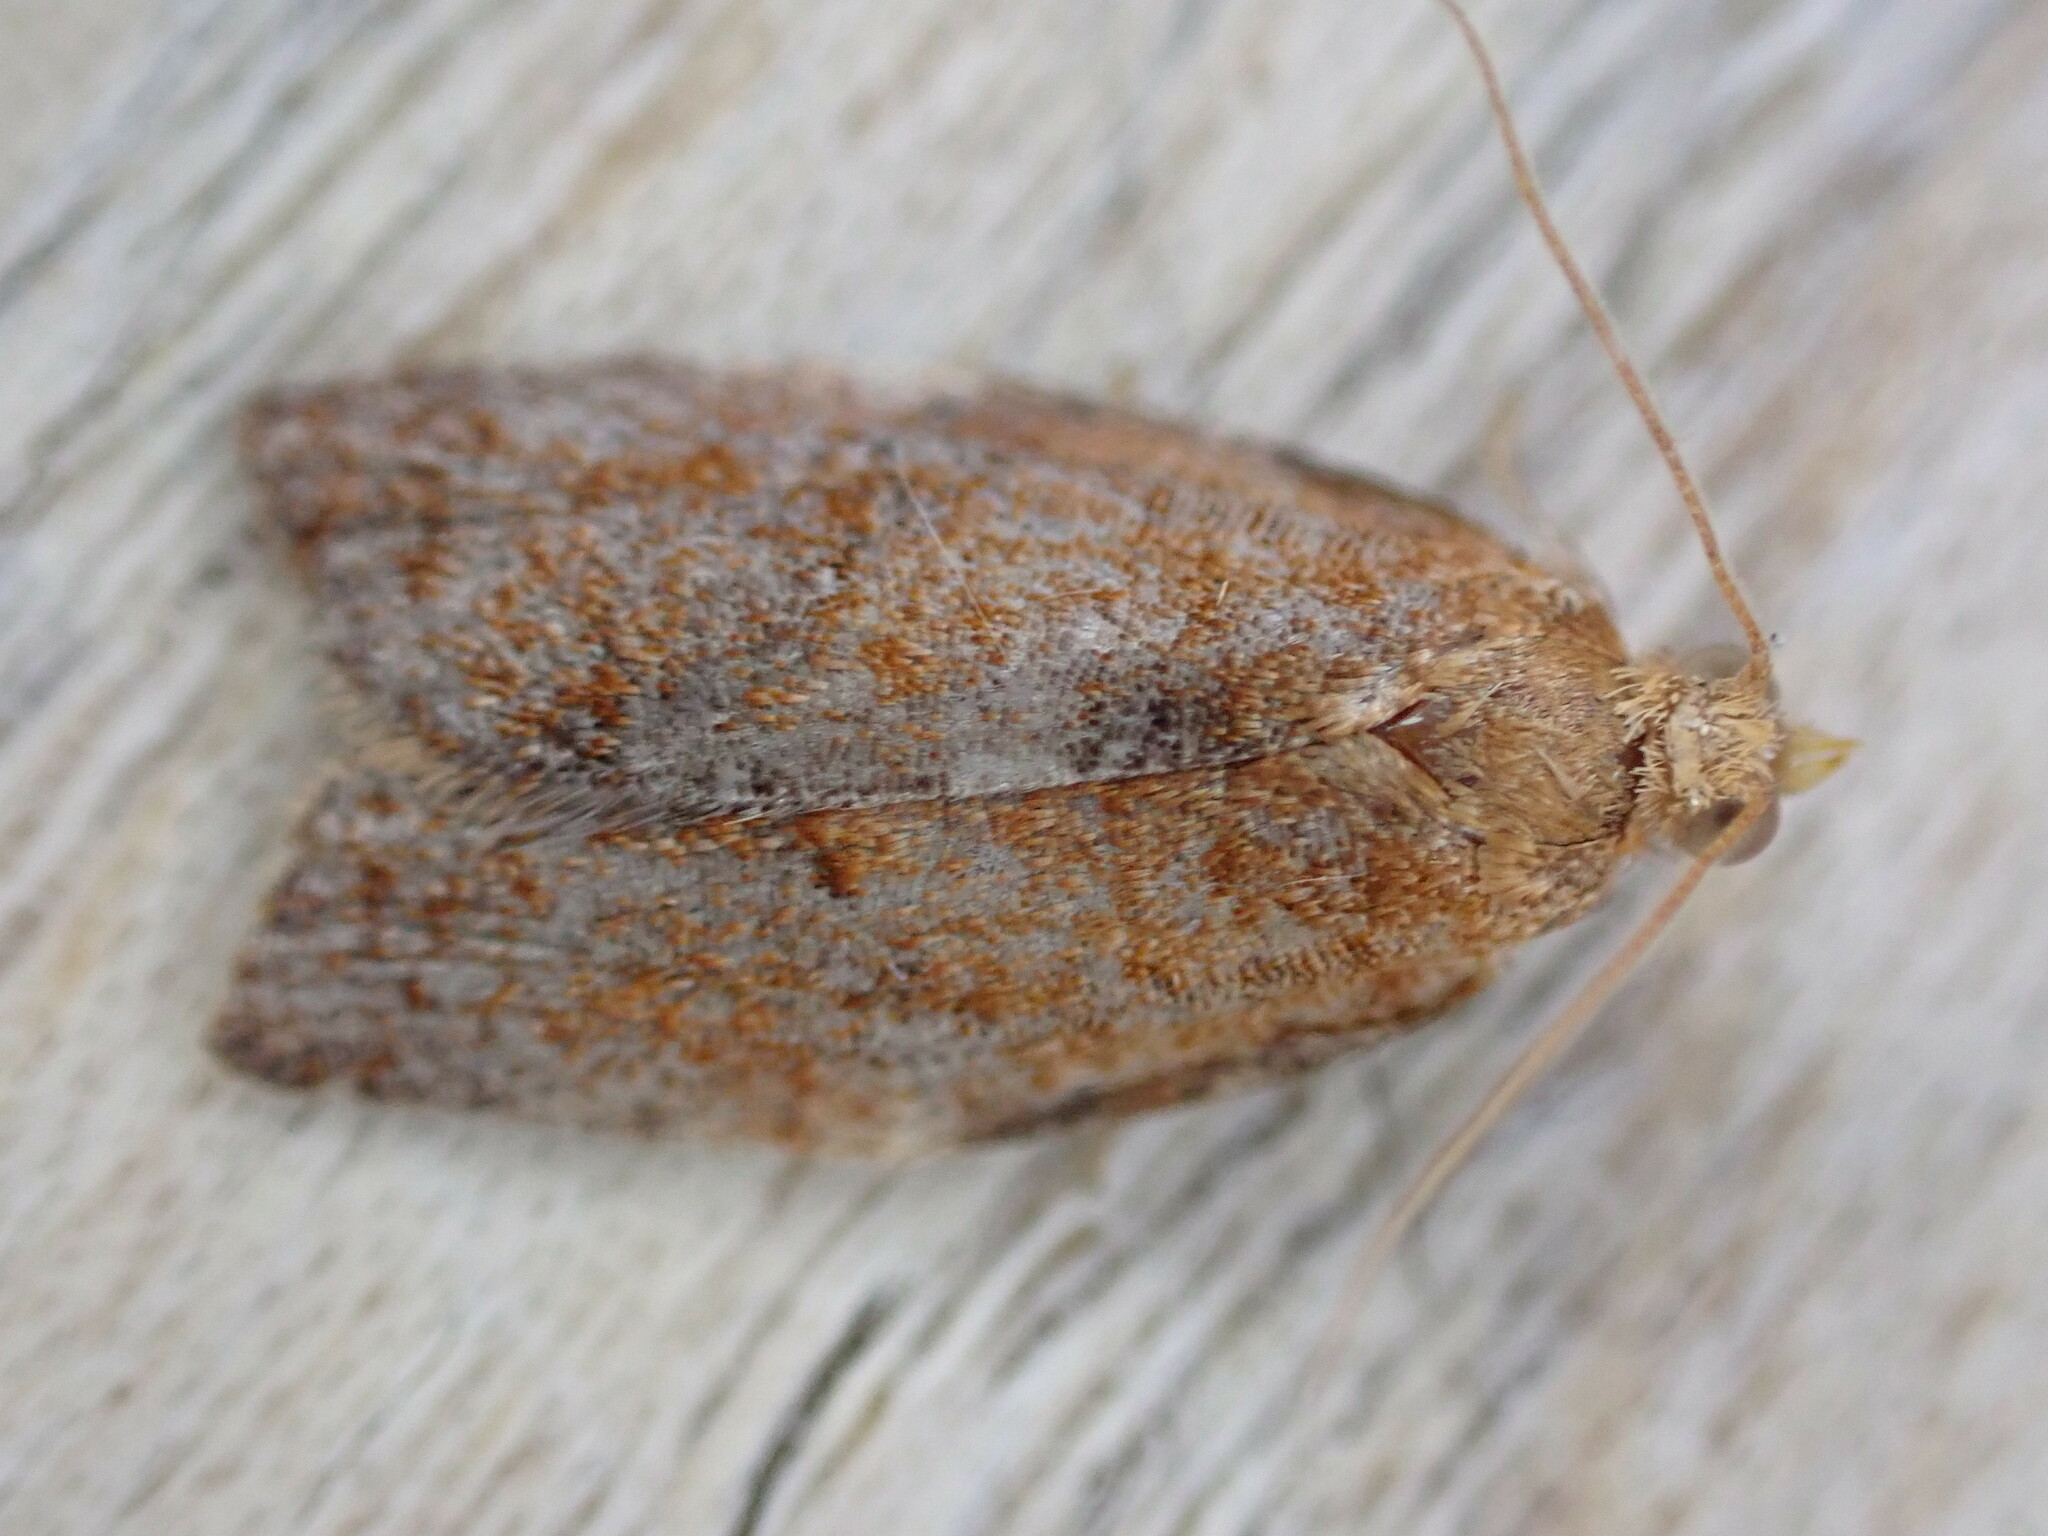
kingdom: Animalia
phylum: Arthropoda
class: Insecta
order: Lepidoptera
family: Tortricidae
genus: Clepsis
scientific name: Clepsis consimilana
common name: Privet tortrix
